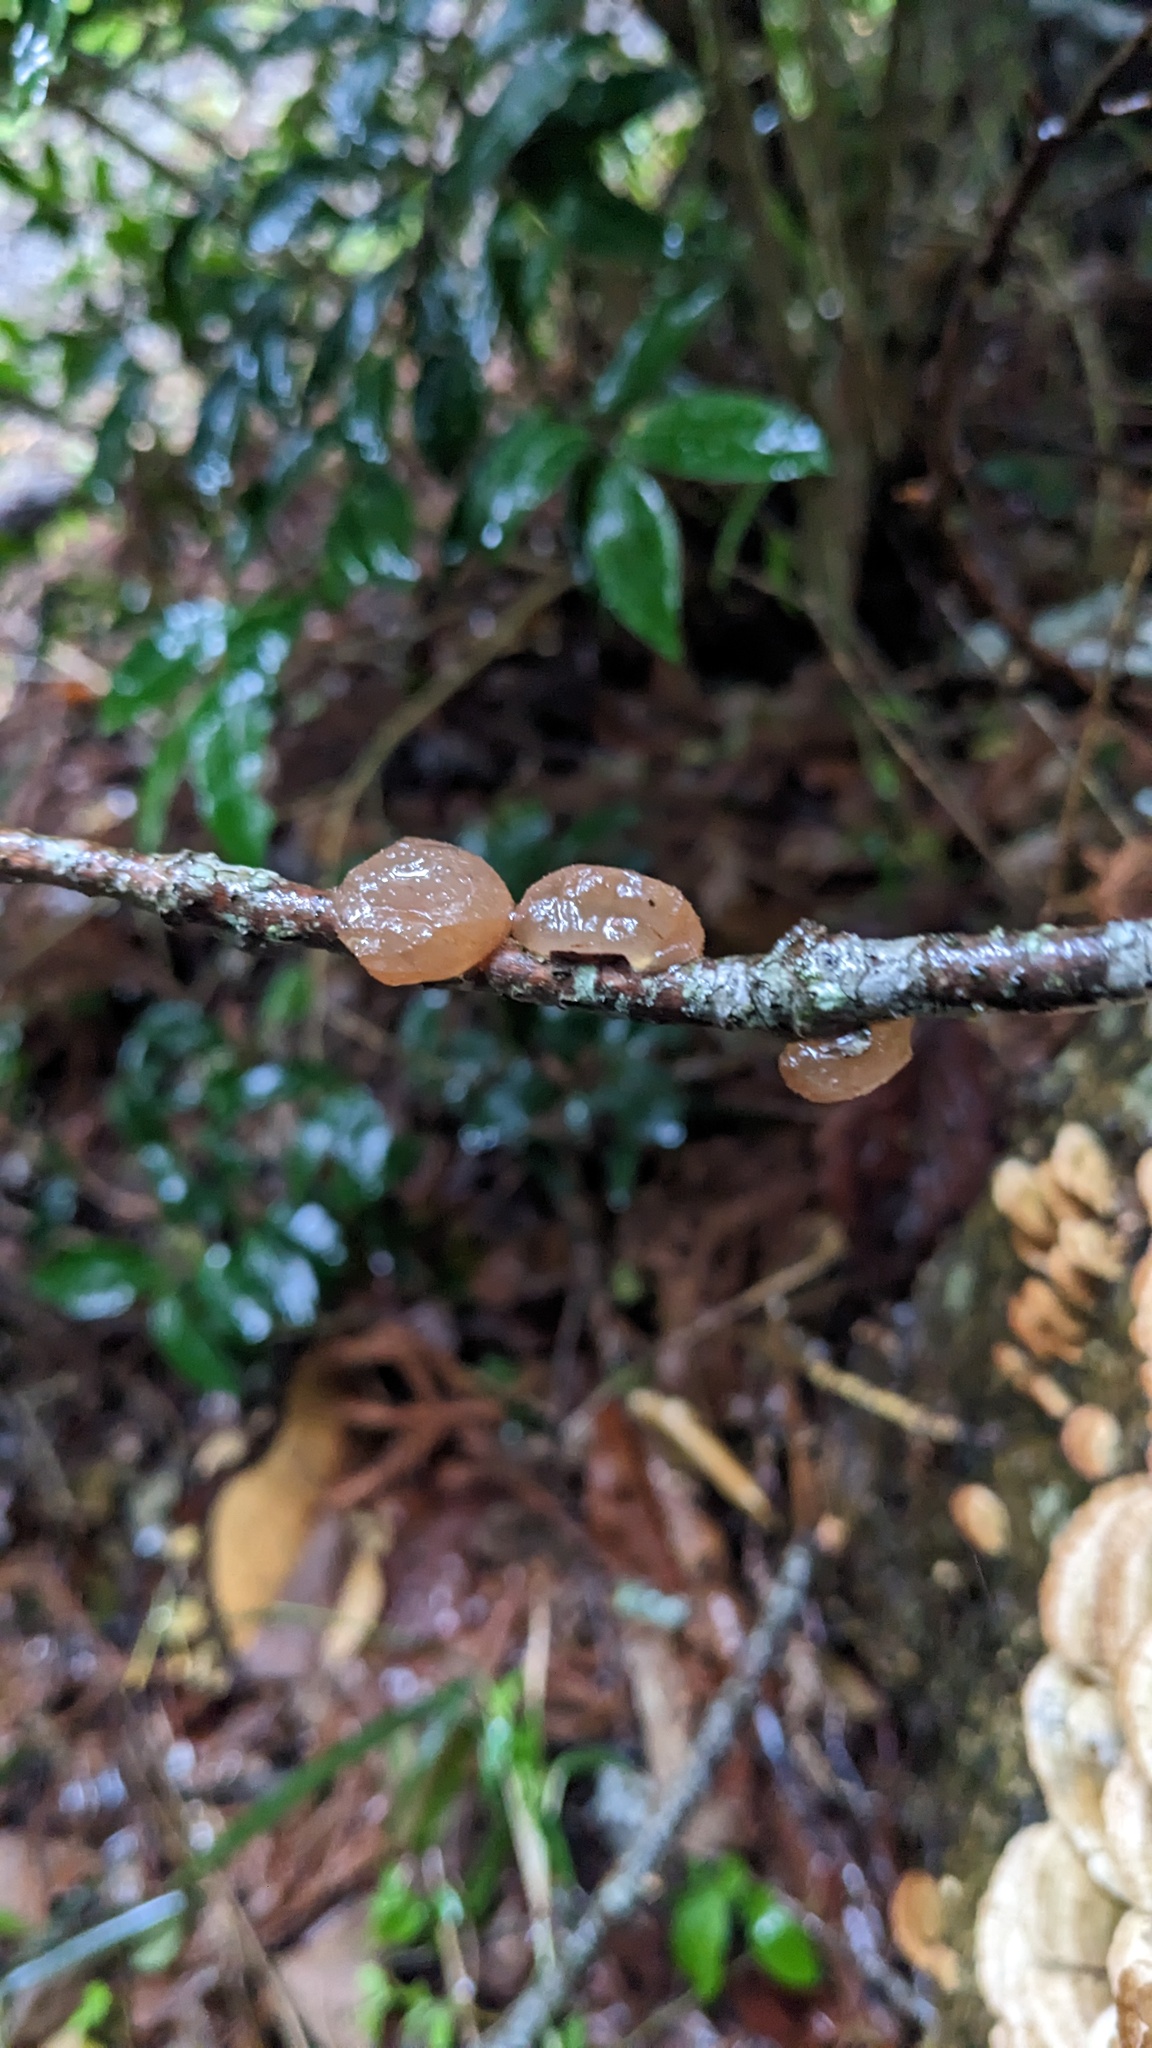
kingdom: Fungi
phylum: Basidiomycota
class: Agaricomycetes
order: Auriculariales
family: Auriculariaceae
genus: Exidia
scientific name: Exidia uvapassa
